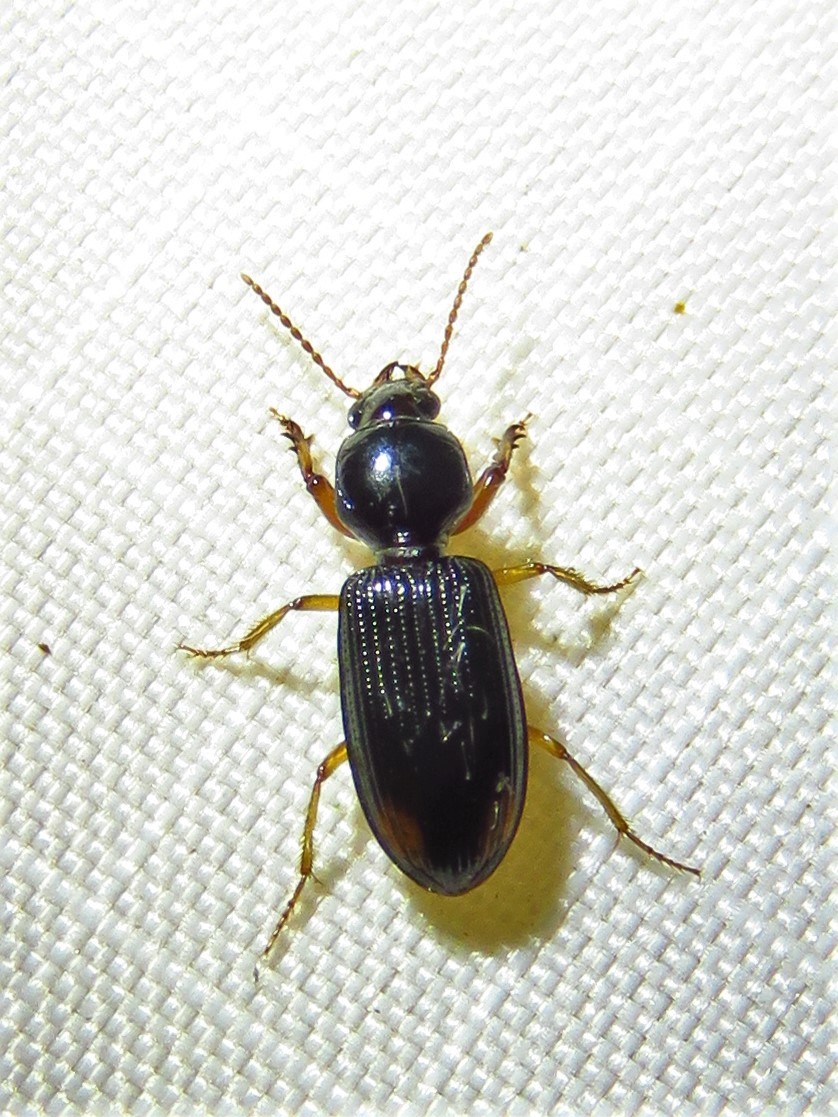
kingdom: Animalia
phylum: Arthropoda
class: Insecta
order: Coleoptera
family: Carabidae
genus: Aspidoglossa
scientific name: Aspidoglossa subangulata
